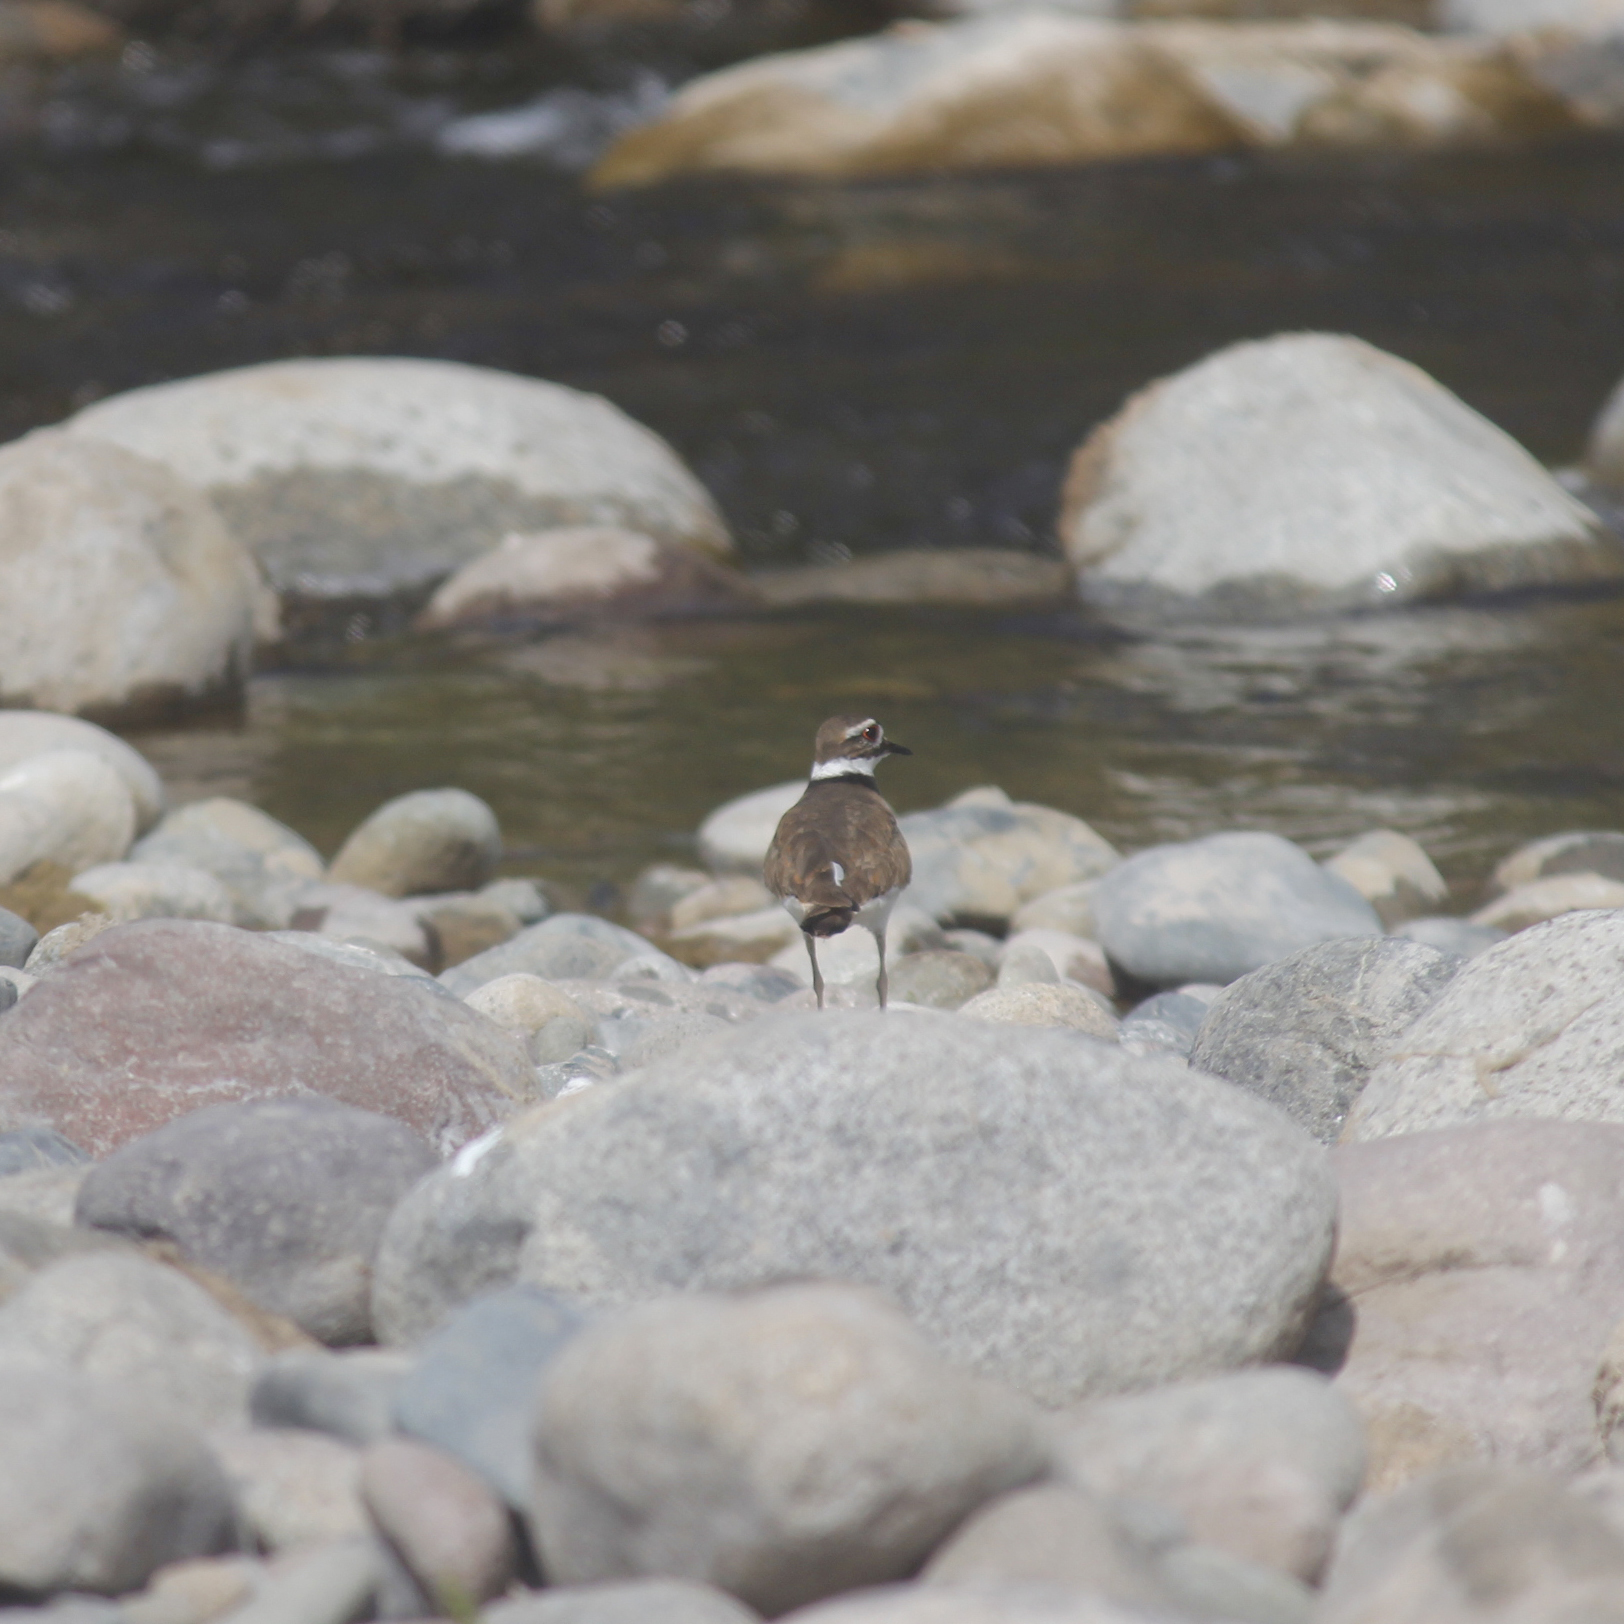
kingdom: Animalia
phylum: Chordata
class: Aves
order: Charadriiformes
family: Charadriidae
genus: Charadrius
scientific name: Charadrius vociferus
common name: Killdeer
